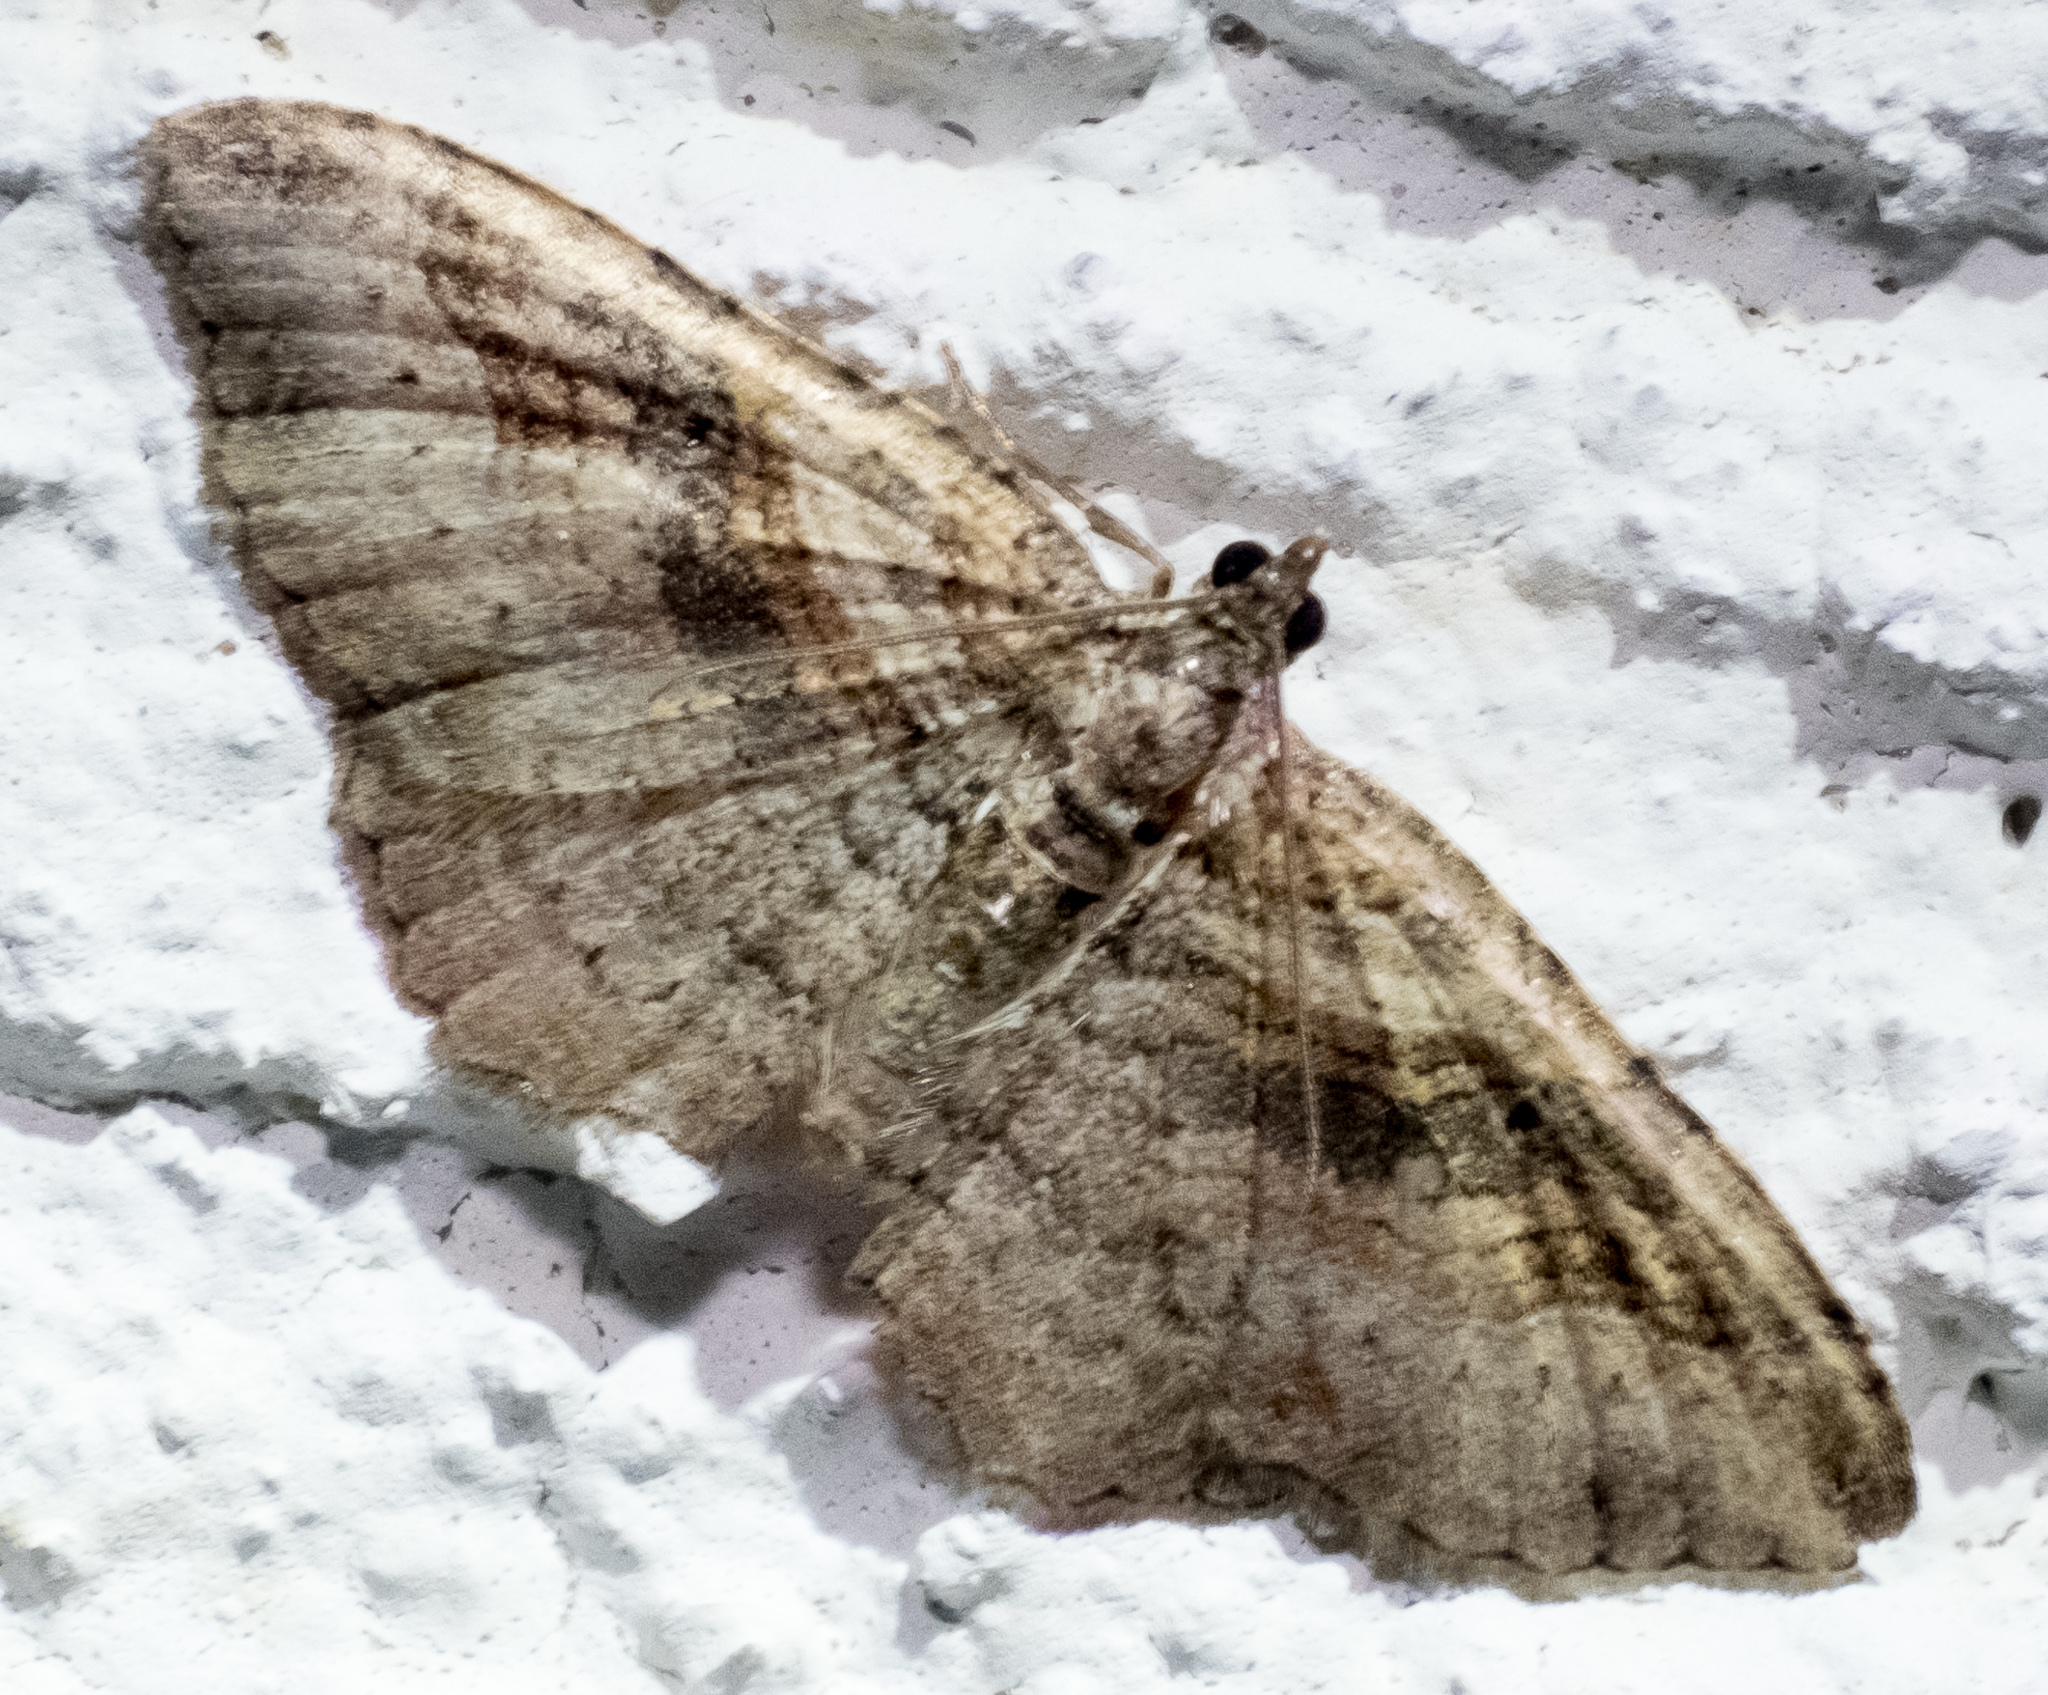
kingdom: Animalia
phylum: Arthropoda
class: Insecta
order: Lepidoptera
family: Geometridae
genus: Costaconvexa
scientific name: Costaconvexa centrostrigaria
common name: Bent-line carpet
